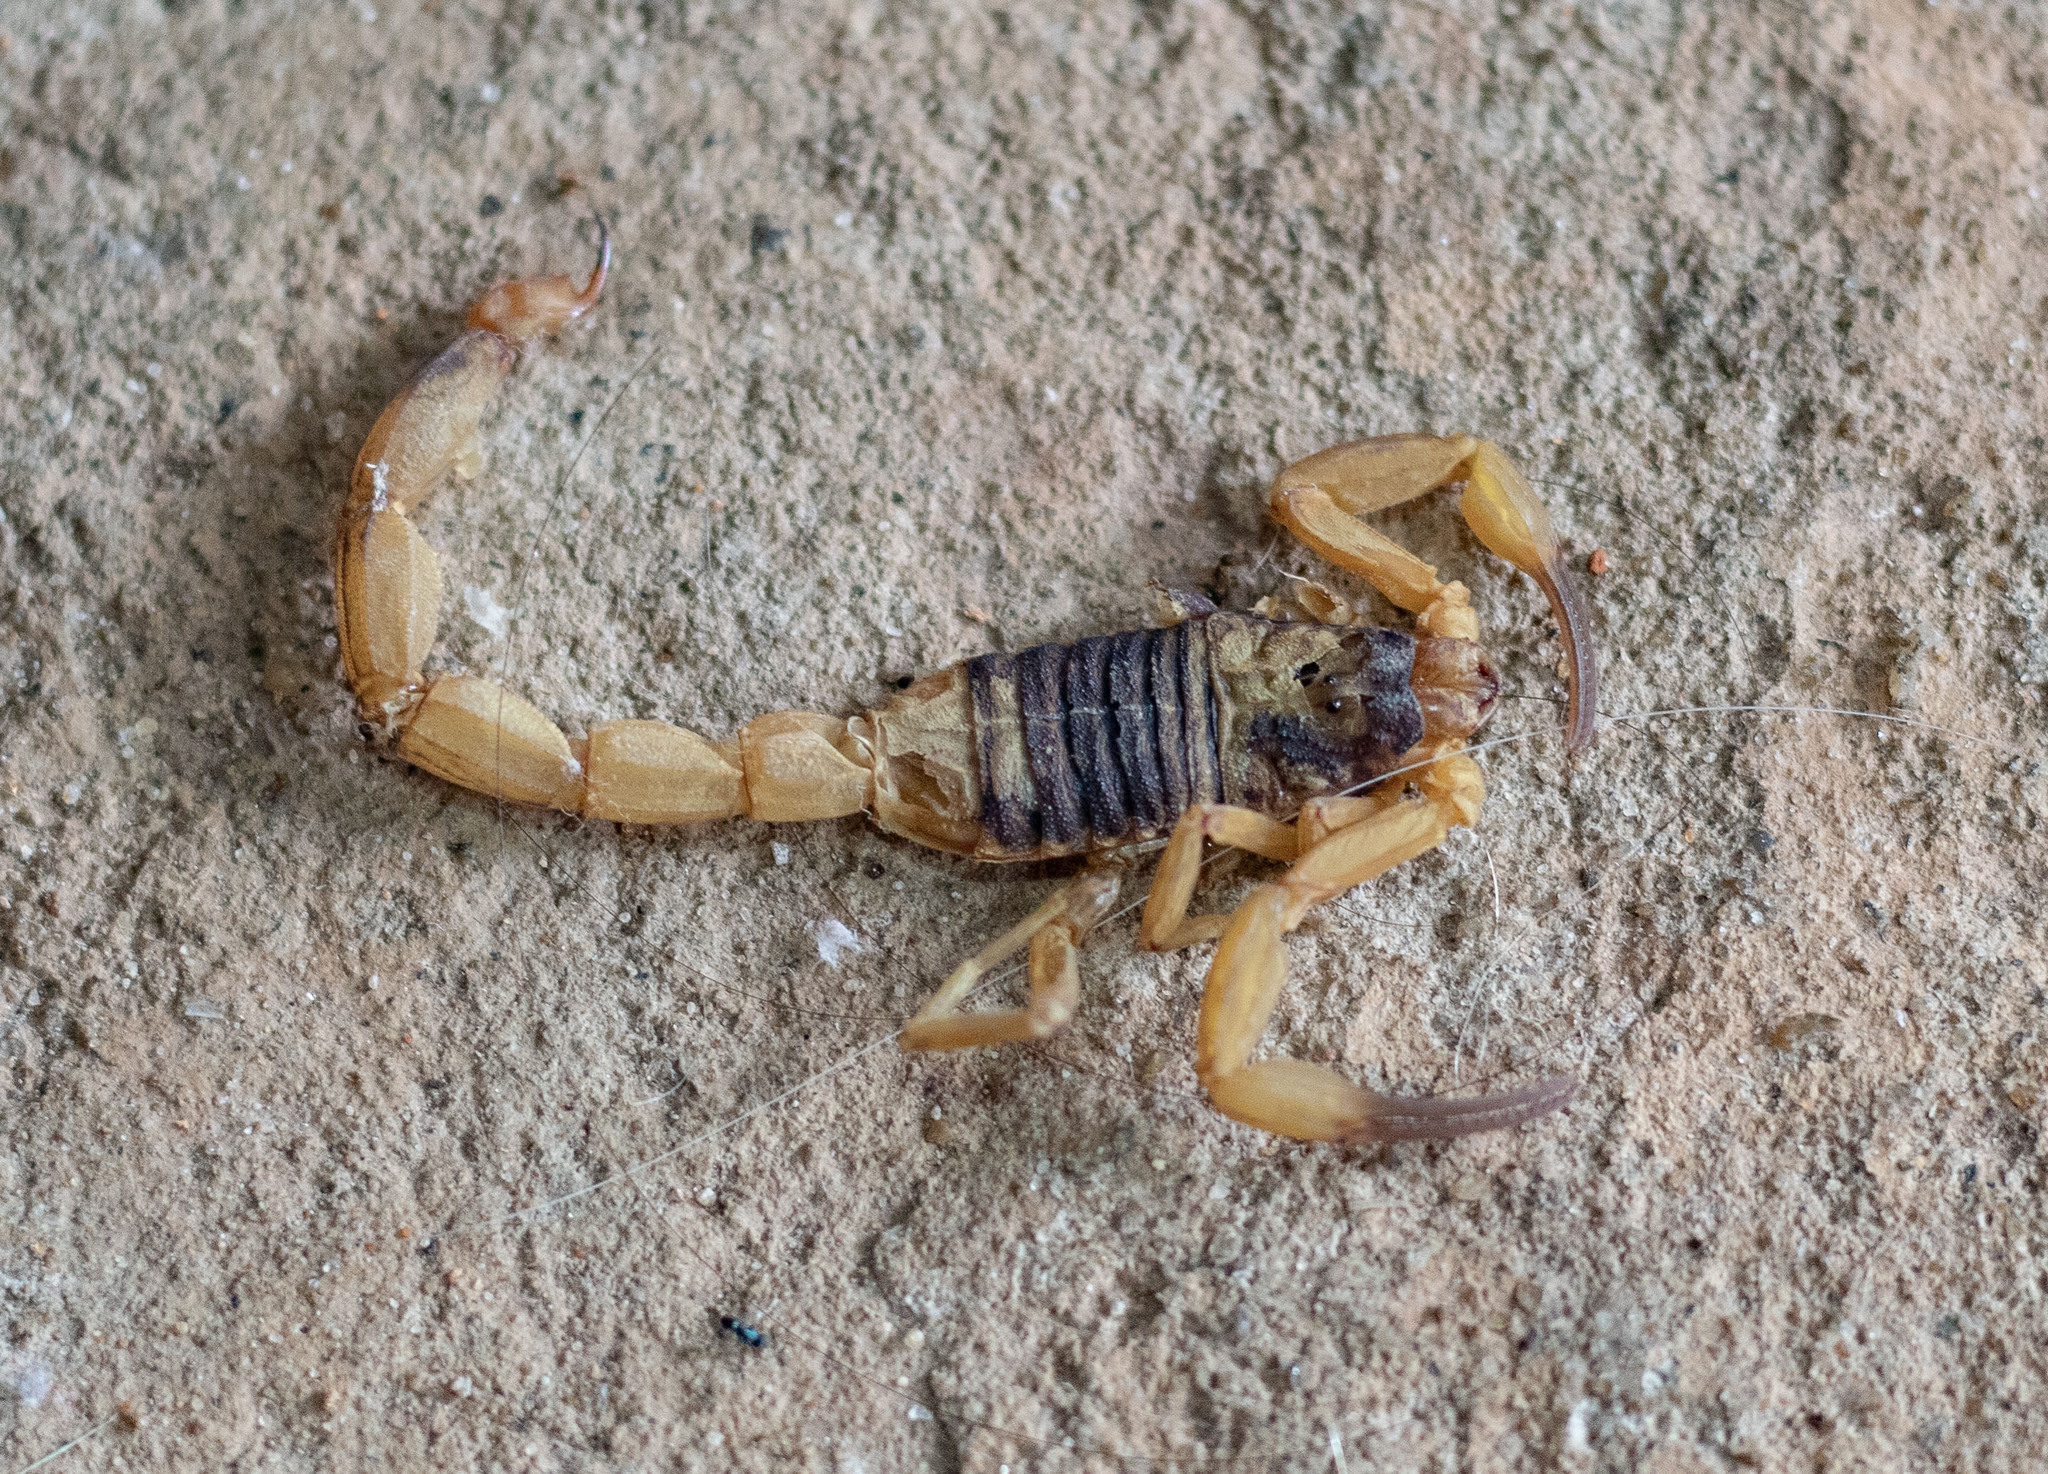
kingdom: Animalia
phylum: Arthropoda
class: Arachnida
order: Scorpiones
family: Buthidae
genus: Tityus
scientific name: Tityus serrulatus
